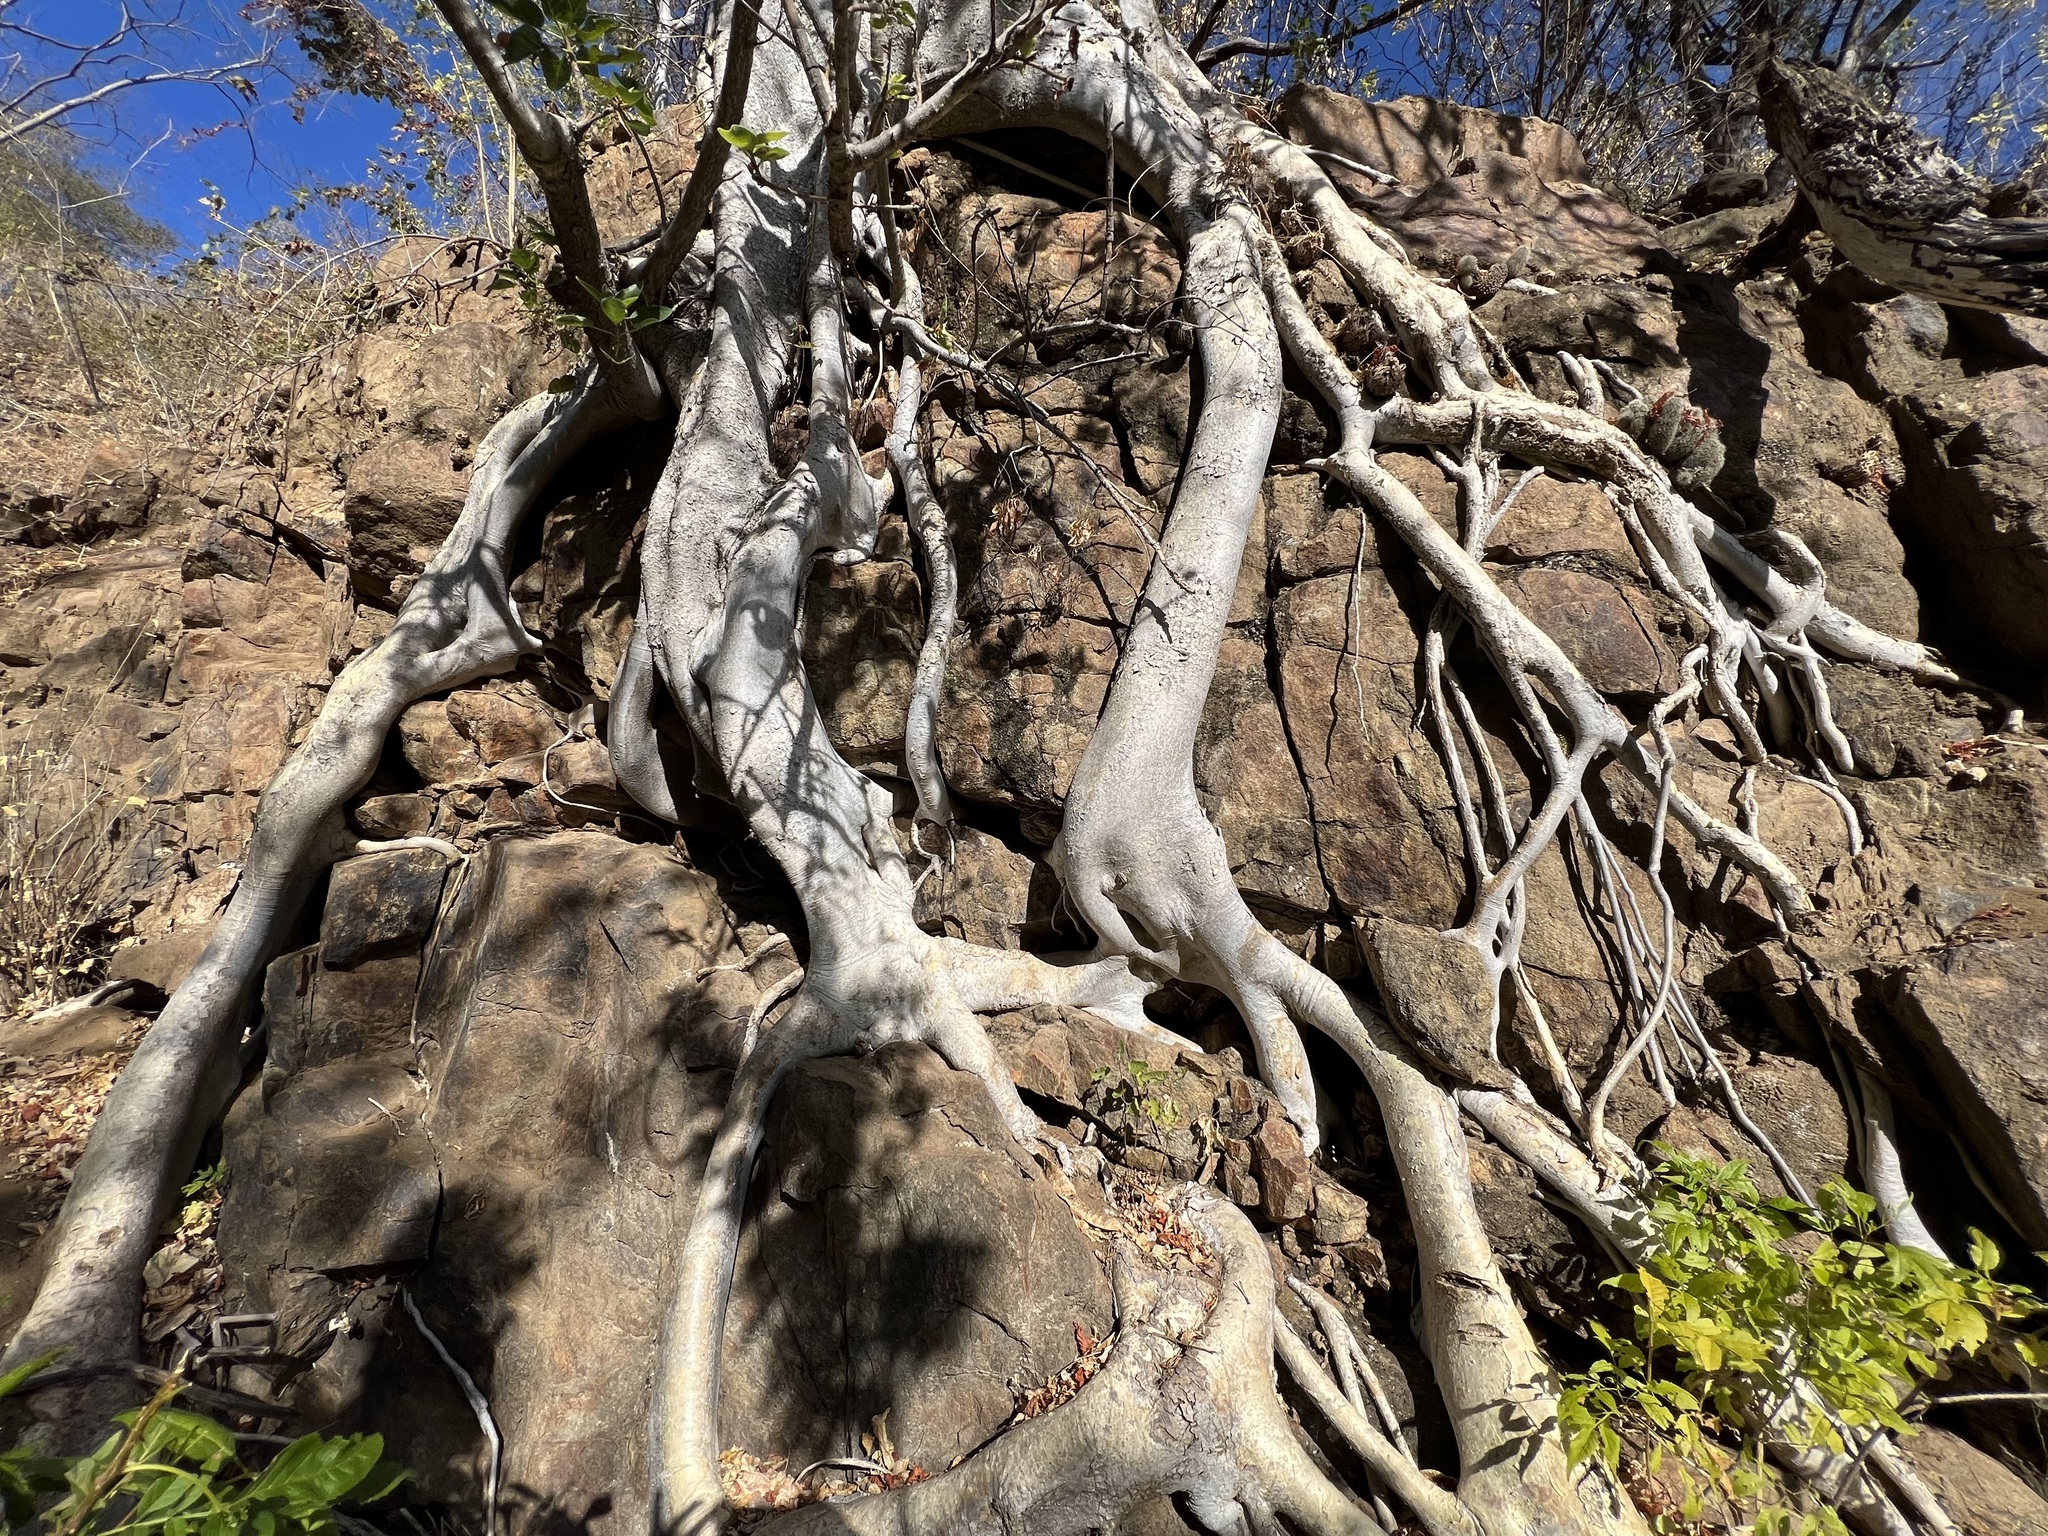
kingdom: Plantae
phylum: Tracheophyta
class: Magnoliopsida
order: Rosales
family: Moraceae
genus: Ficus
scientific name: Ficus petiolaris
